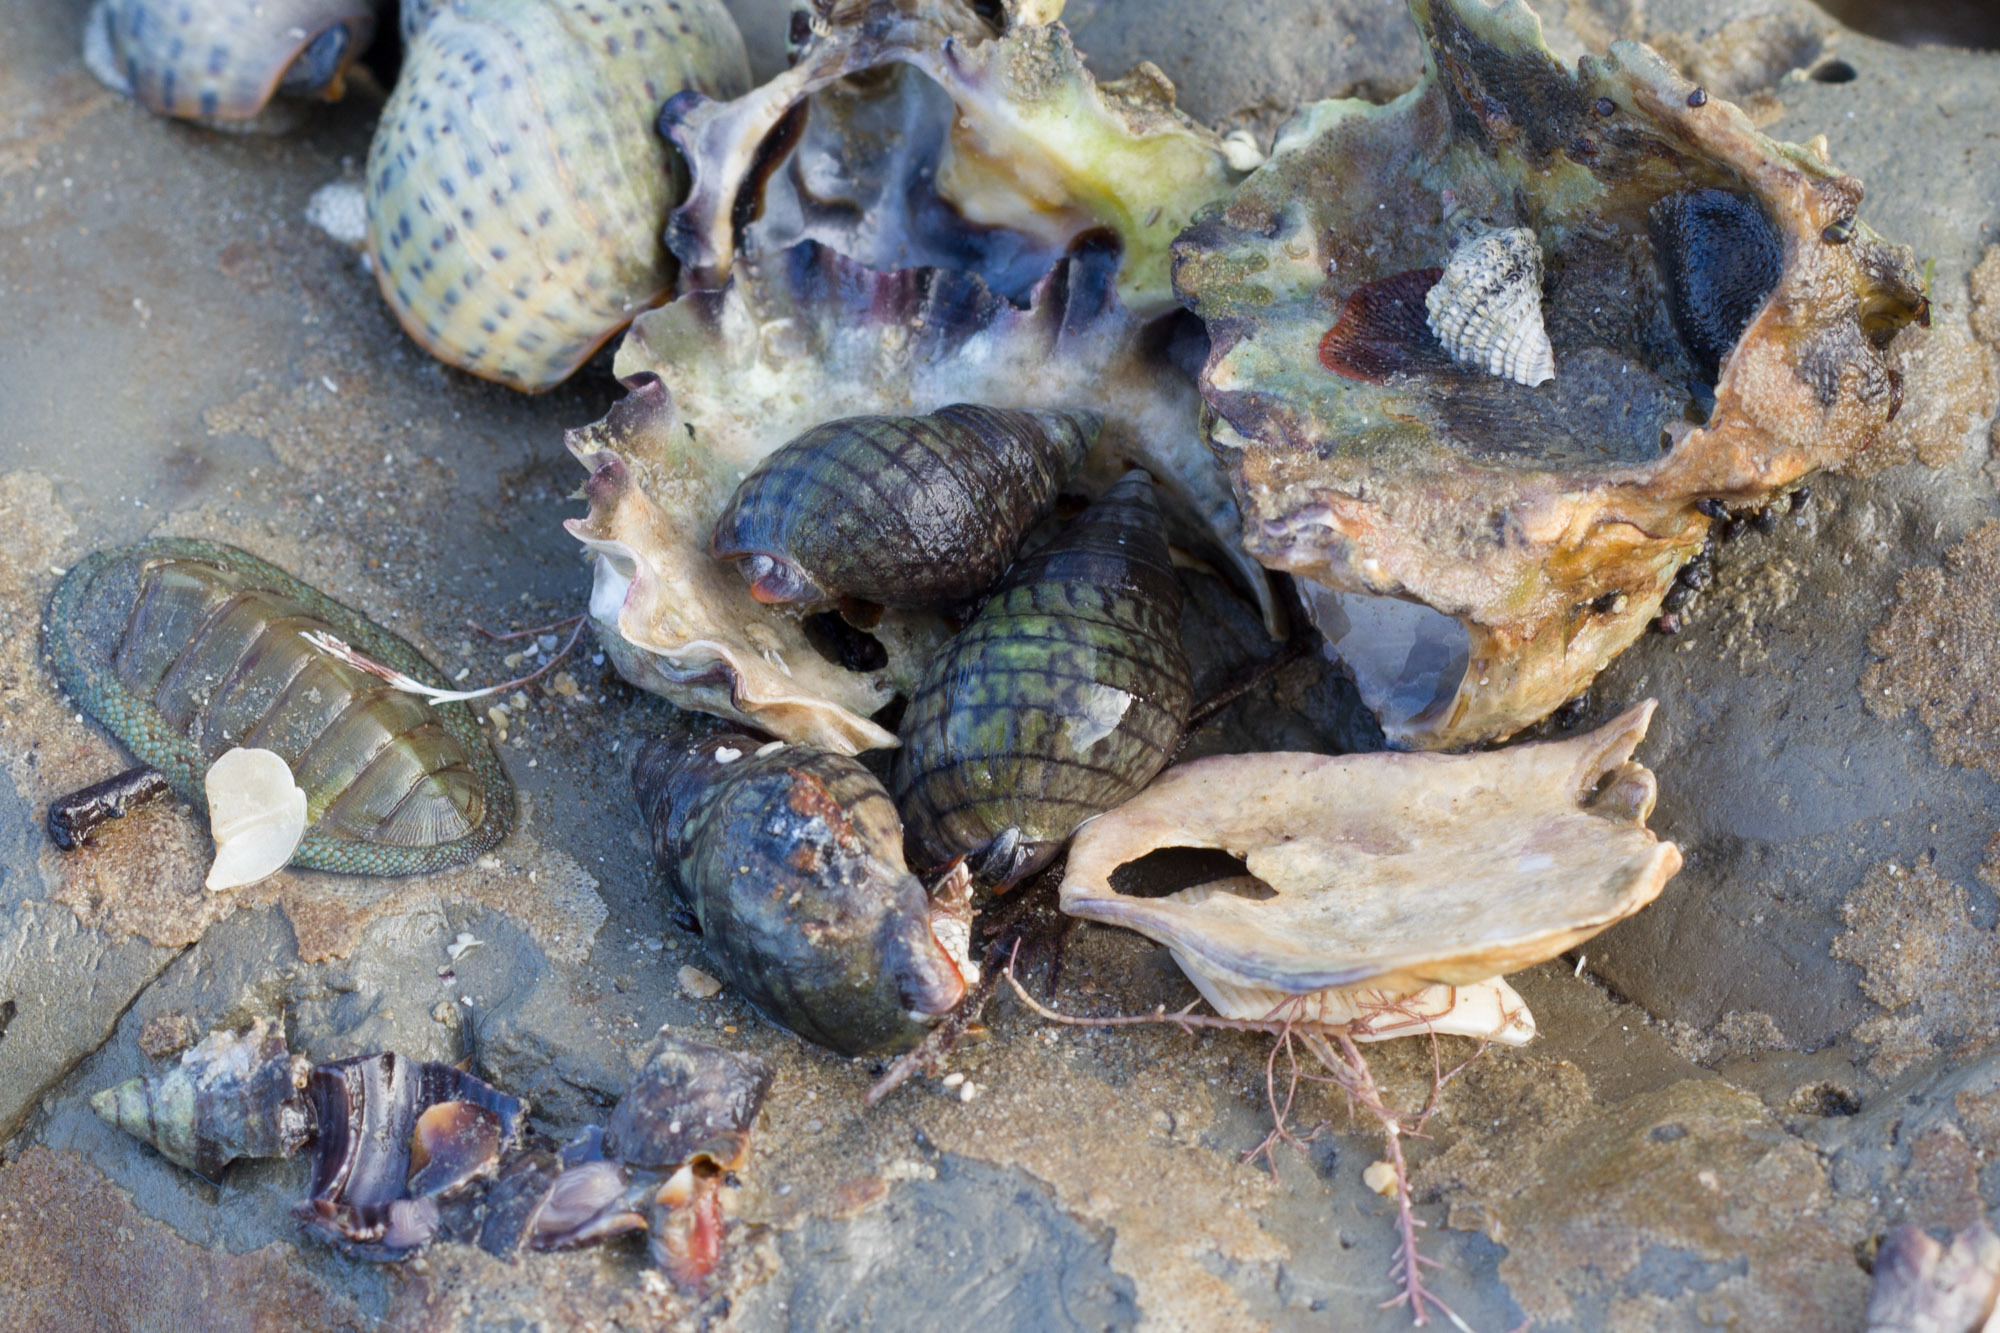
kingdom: Animalia
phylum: Mollusca
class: Gastropoda
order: Neogastropoda
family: Cominellidae
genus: Cominella
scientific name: Cominella virgata
